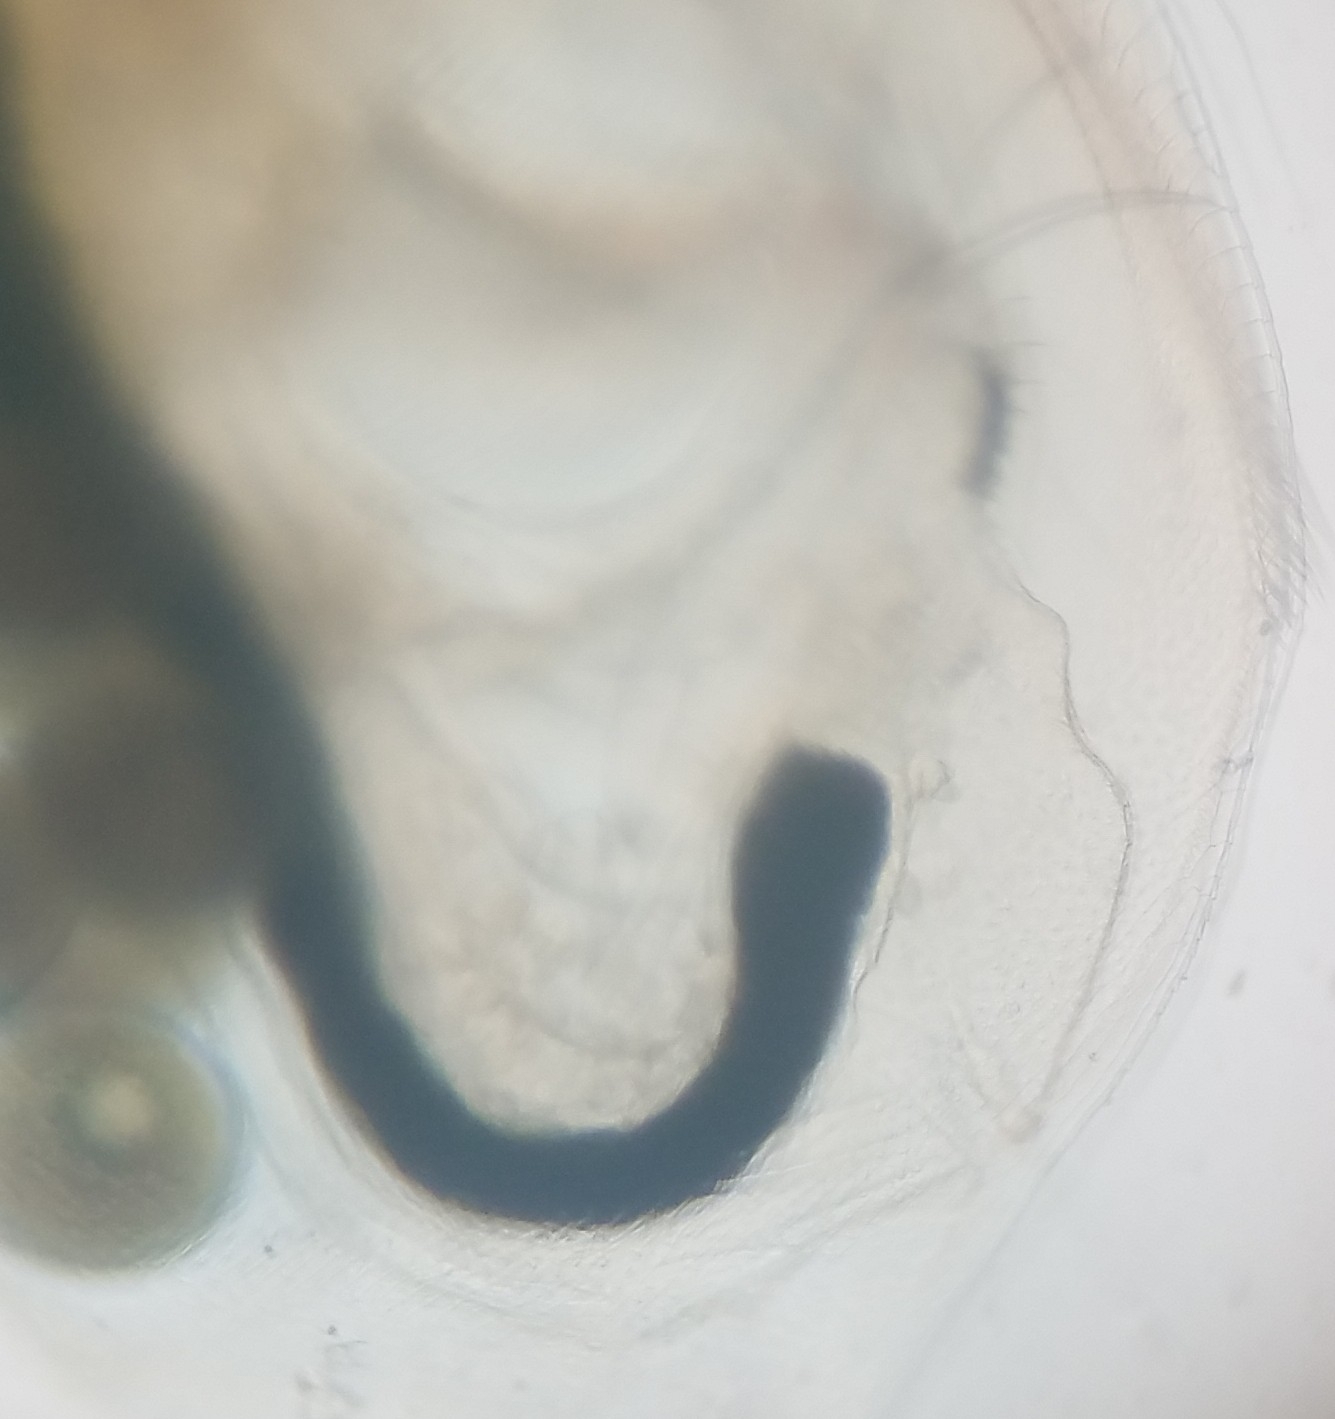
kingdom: Animalia
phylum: Arthropoda
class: Branchiopoda
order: Diplostraca
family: Daphniidae
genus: Simocephalus
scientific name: Simocephalus
